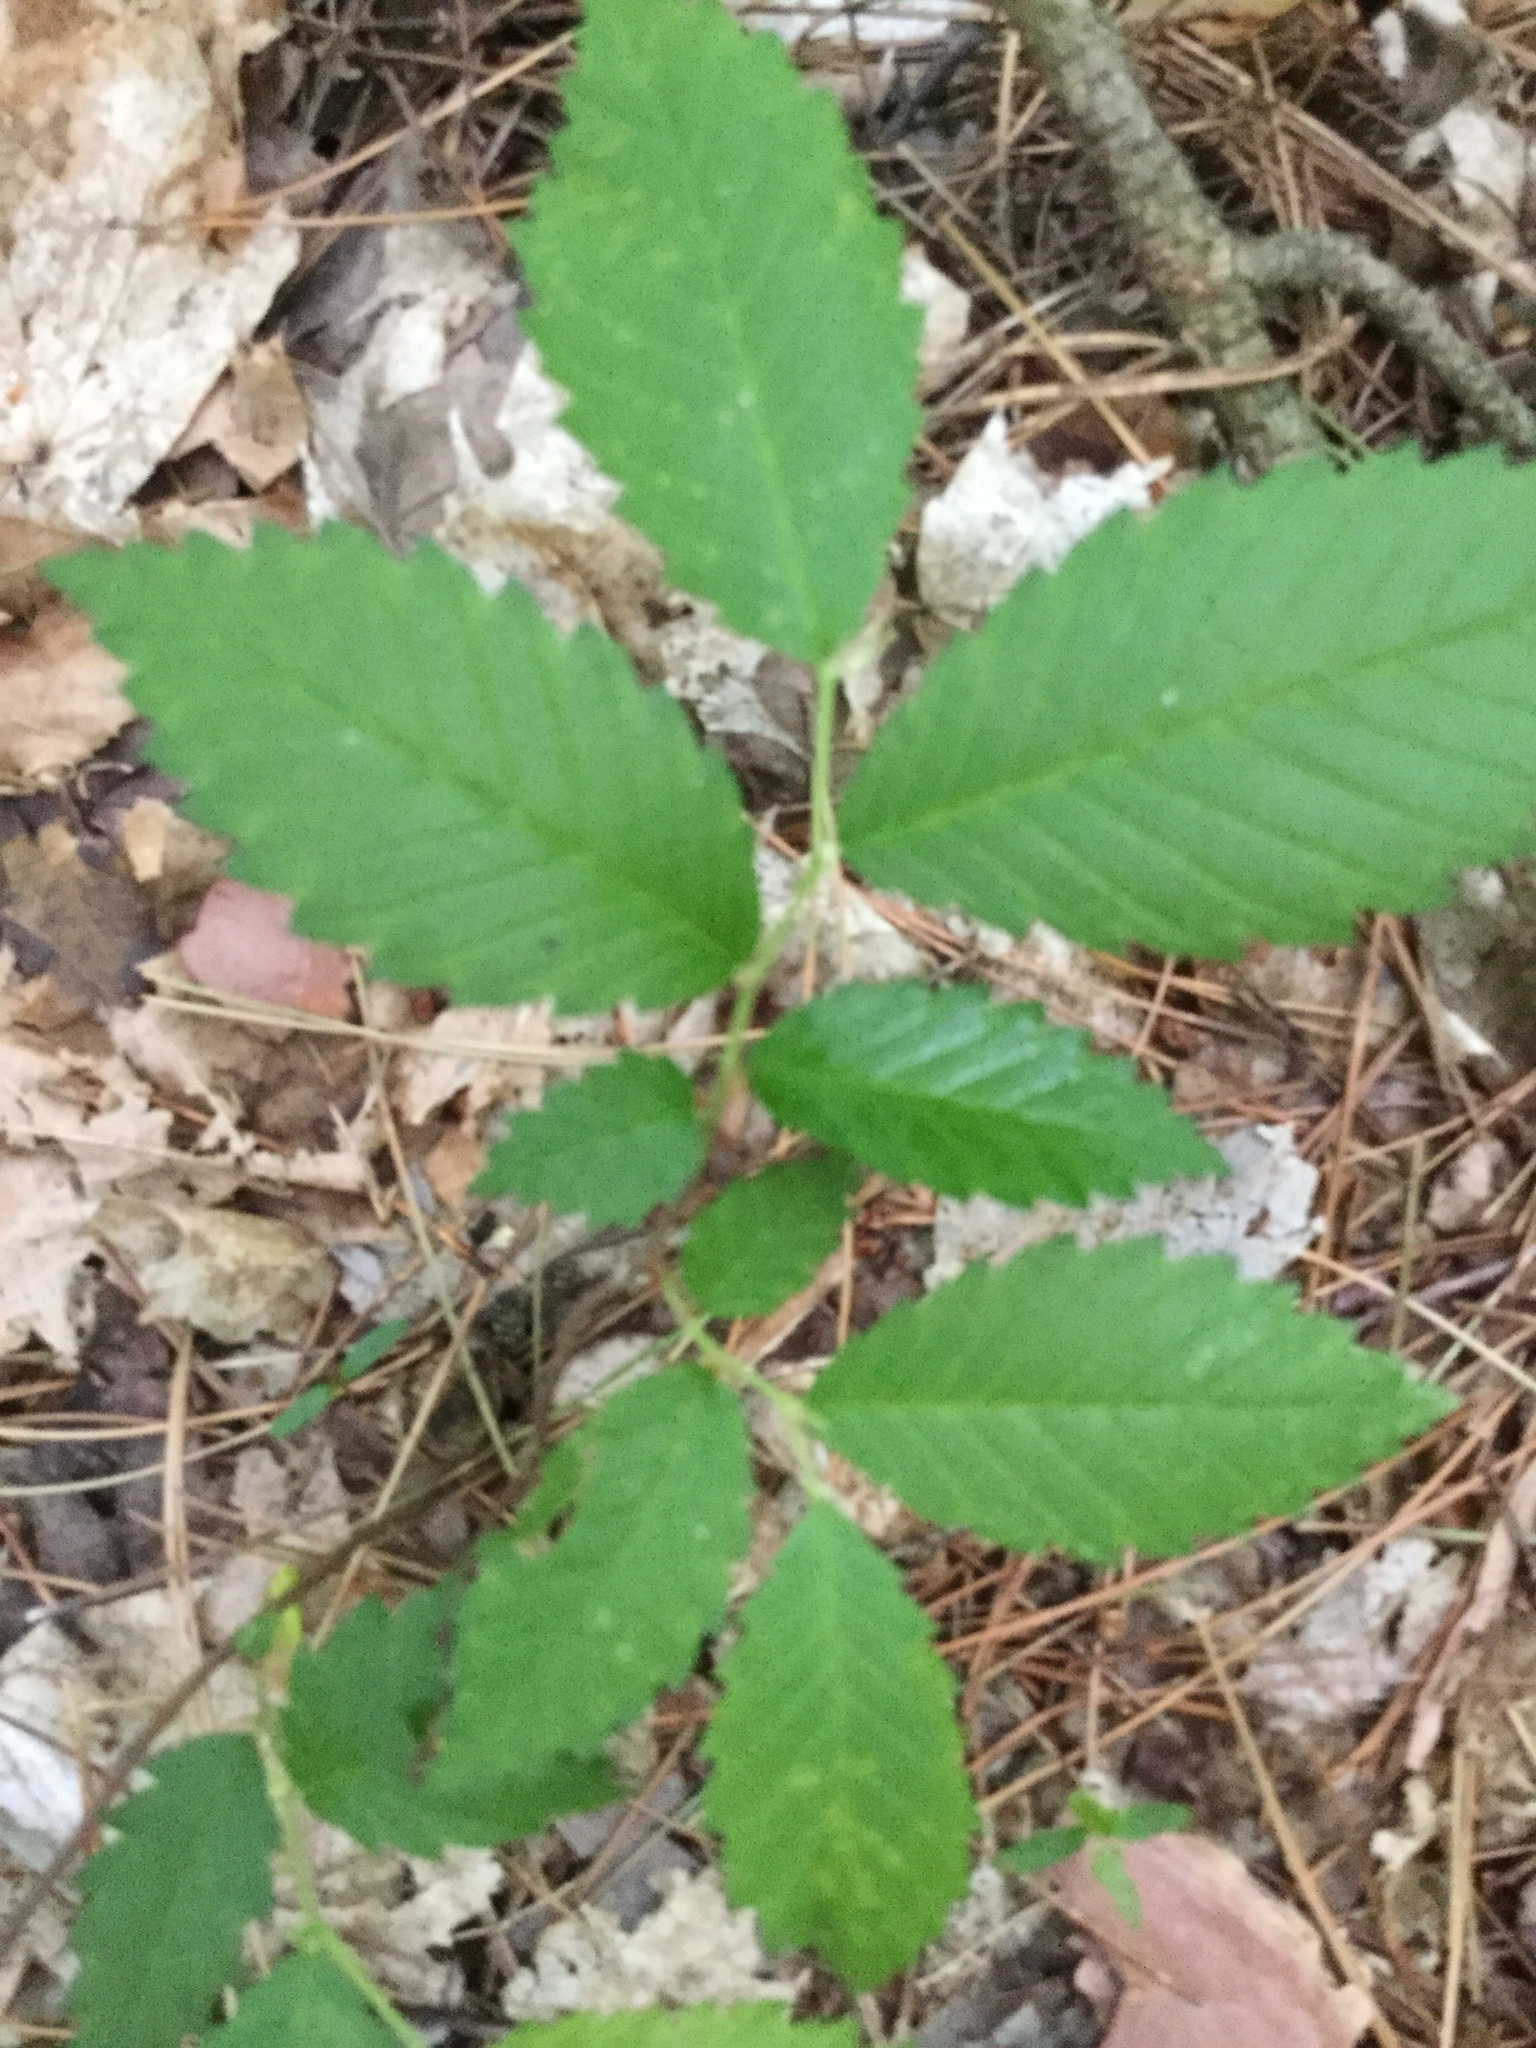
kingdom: Plantae
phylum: Tracheophyta
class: Magnoliopsida
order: Rosales
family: Ulmaceae
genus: Ulmus
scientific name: Ulmus americana
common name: American elm
